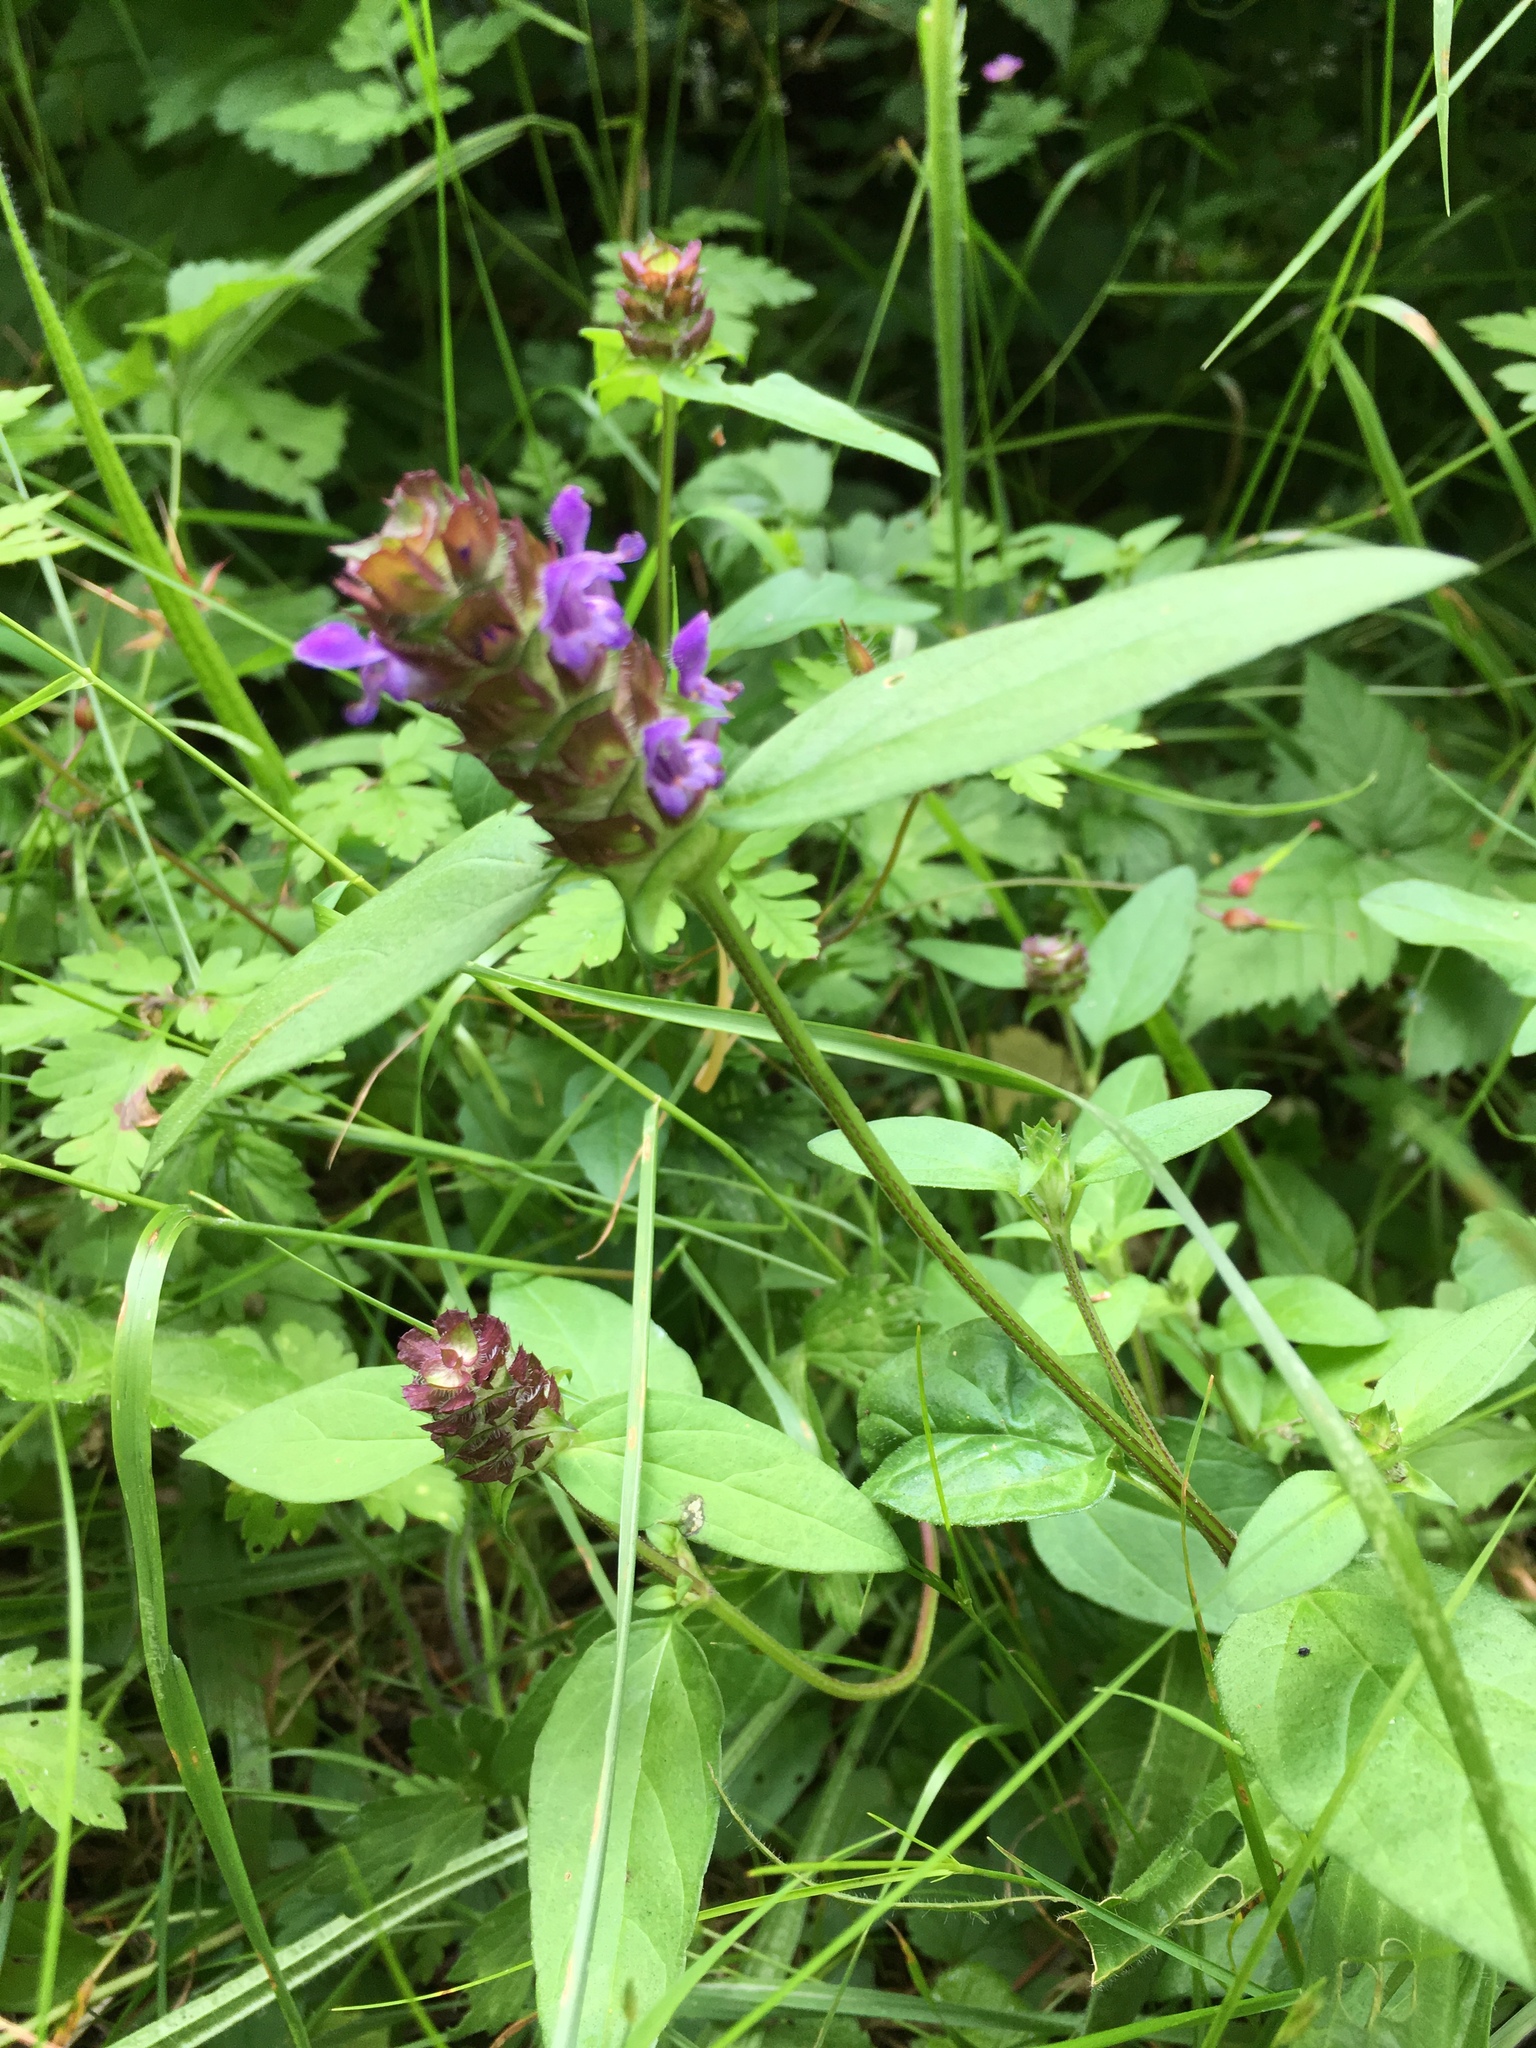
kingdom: Plantae
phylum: Tracheophyta
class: Magnoliopsida
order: Lamiales
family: Lamiaceae
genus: Prunella
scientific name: Prunella vulgaris
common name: Heal-all
